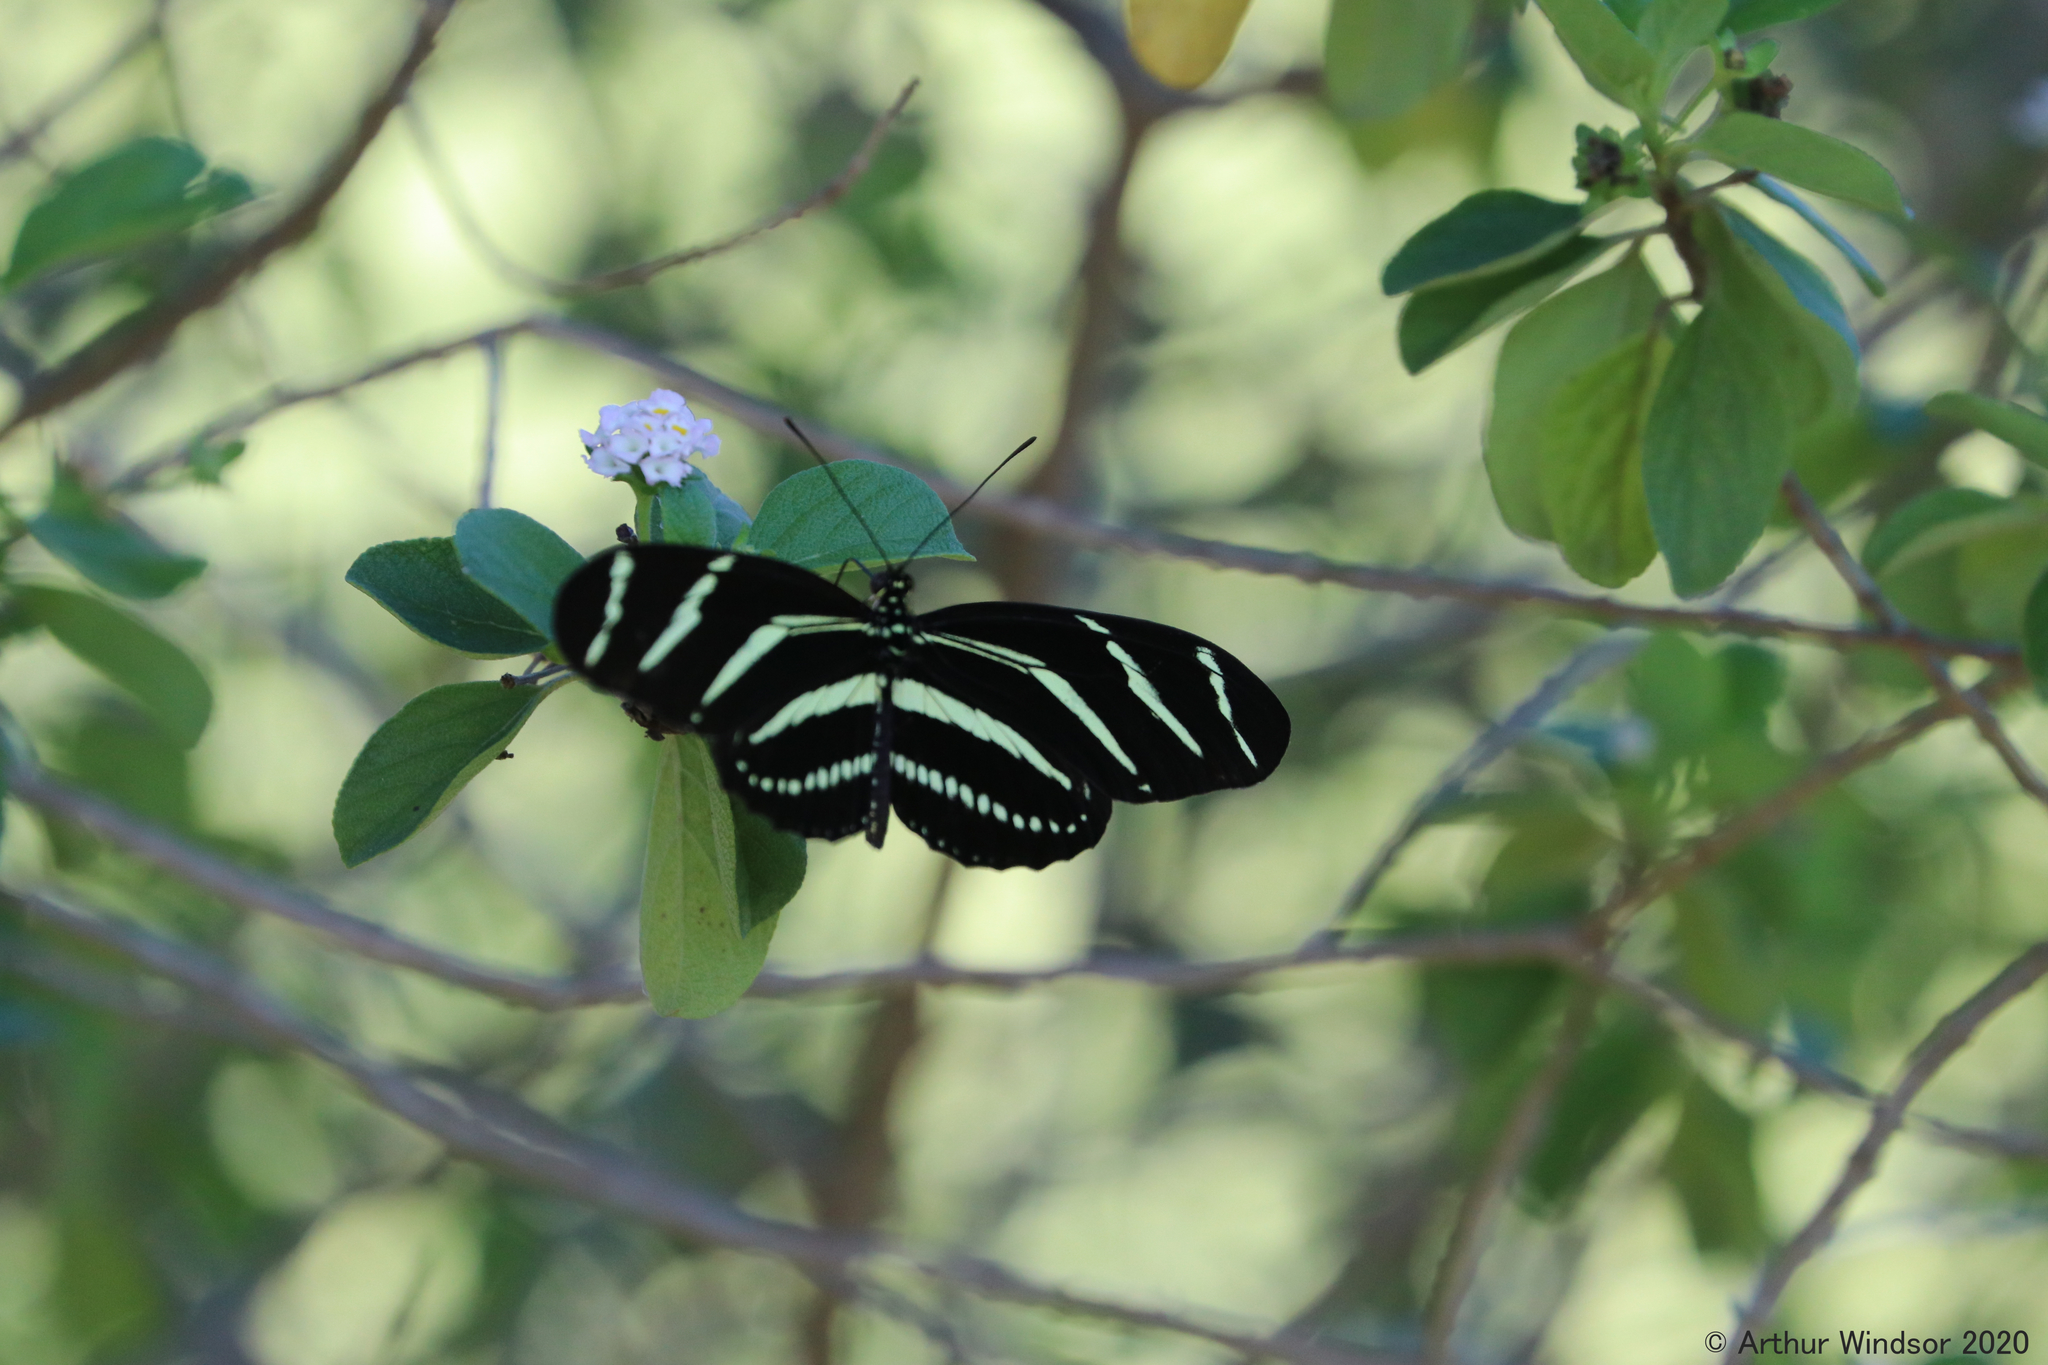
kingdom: Animalia
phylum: Arthropoda
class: Insecta
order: Lepidoptera
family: Nymphalidae
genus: Heliconius
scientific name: Heliconius charithonia
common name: Zebra long wing
